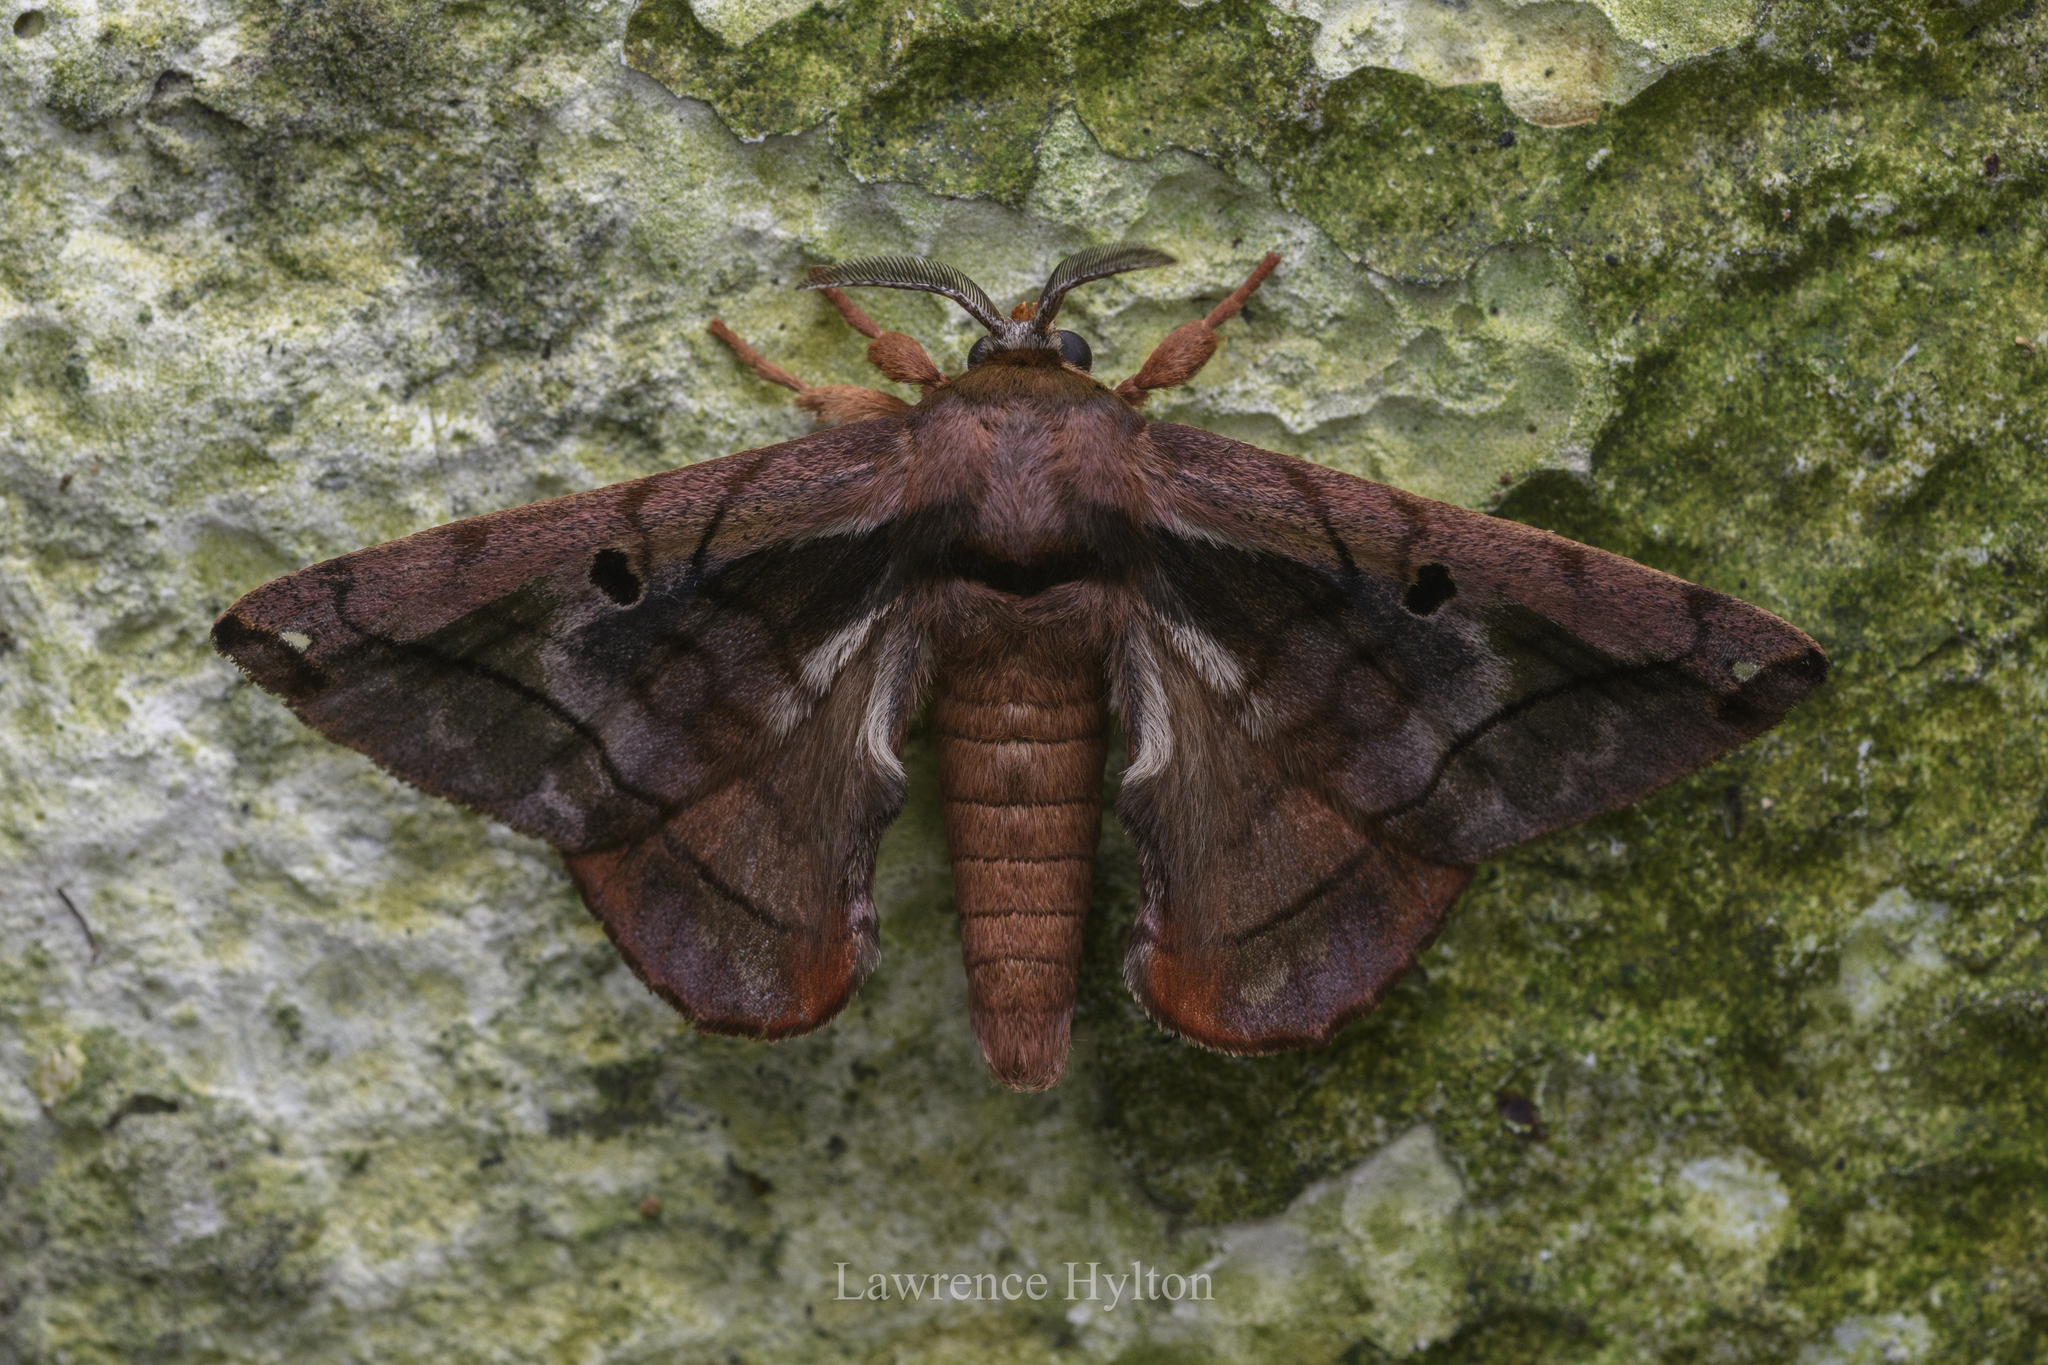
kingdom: Animalia
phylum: Arthropoda
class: Insecta
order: Lepidoptera
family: Endromidae
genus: Prismosticta
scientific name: Prismosticta microprisma
